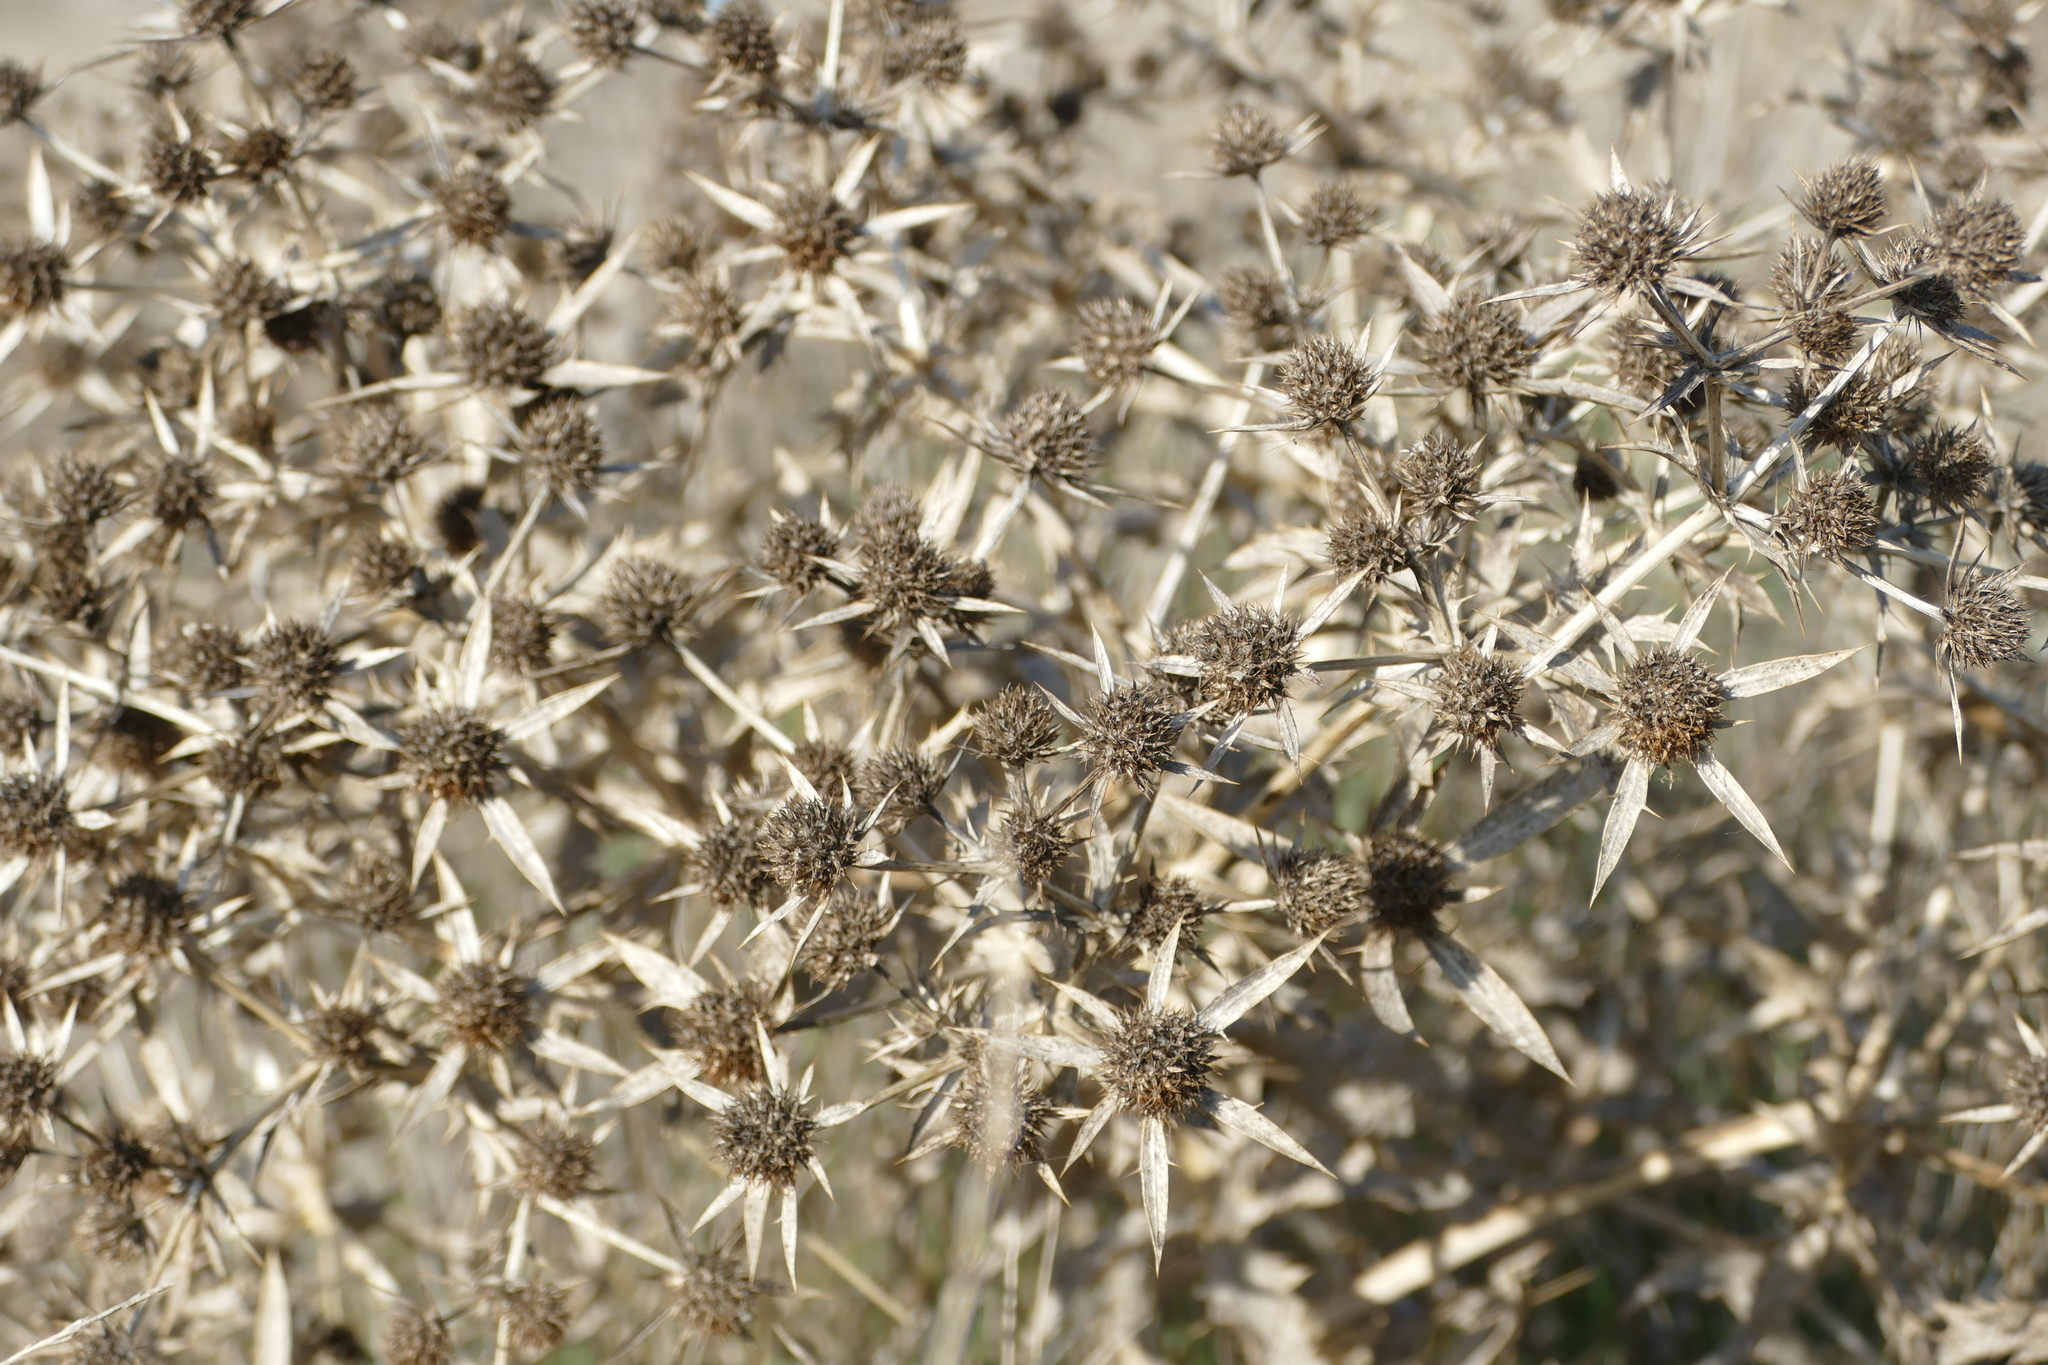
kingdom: Plantae
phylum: Tracheophyta
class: Magnoliopsida
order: Apiales
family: Apiaceae
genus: Eryngium
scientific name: Eryngium campestre
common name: Field eryngo
